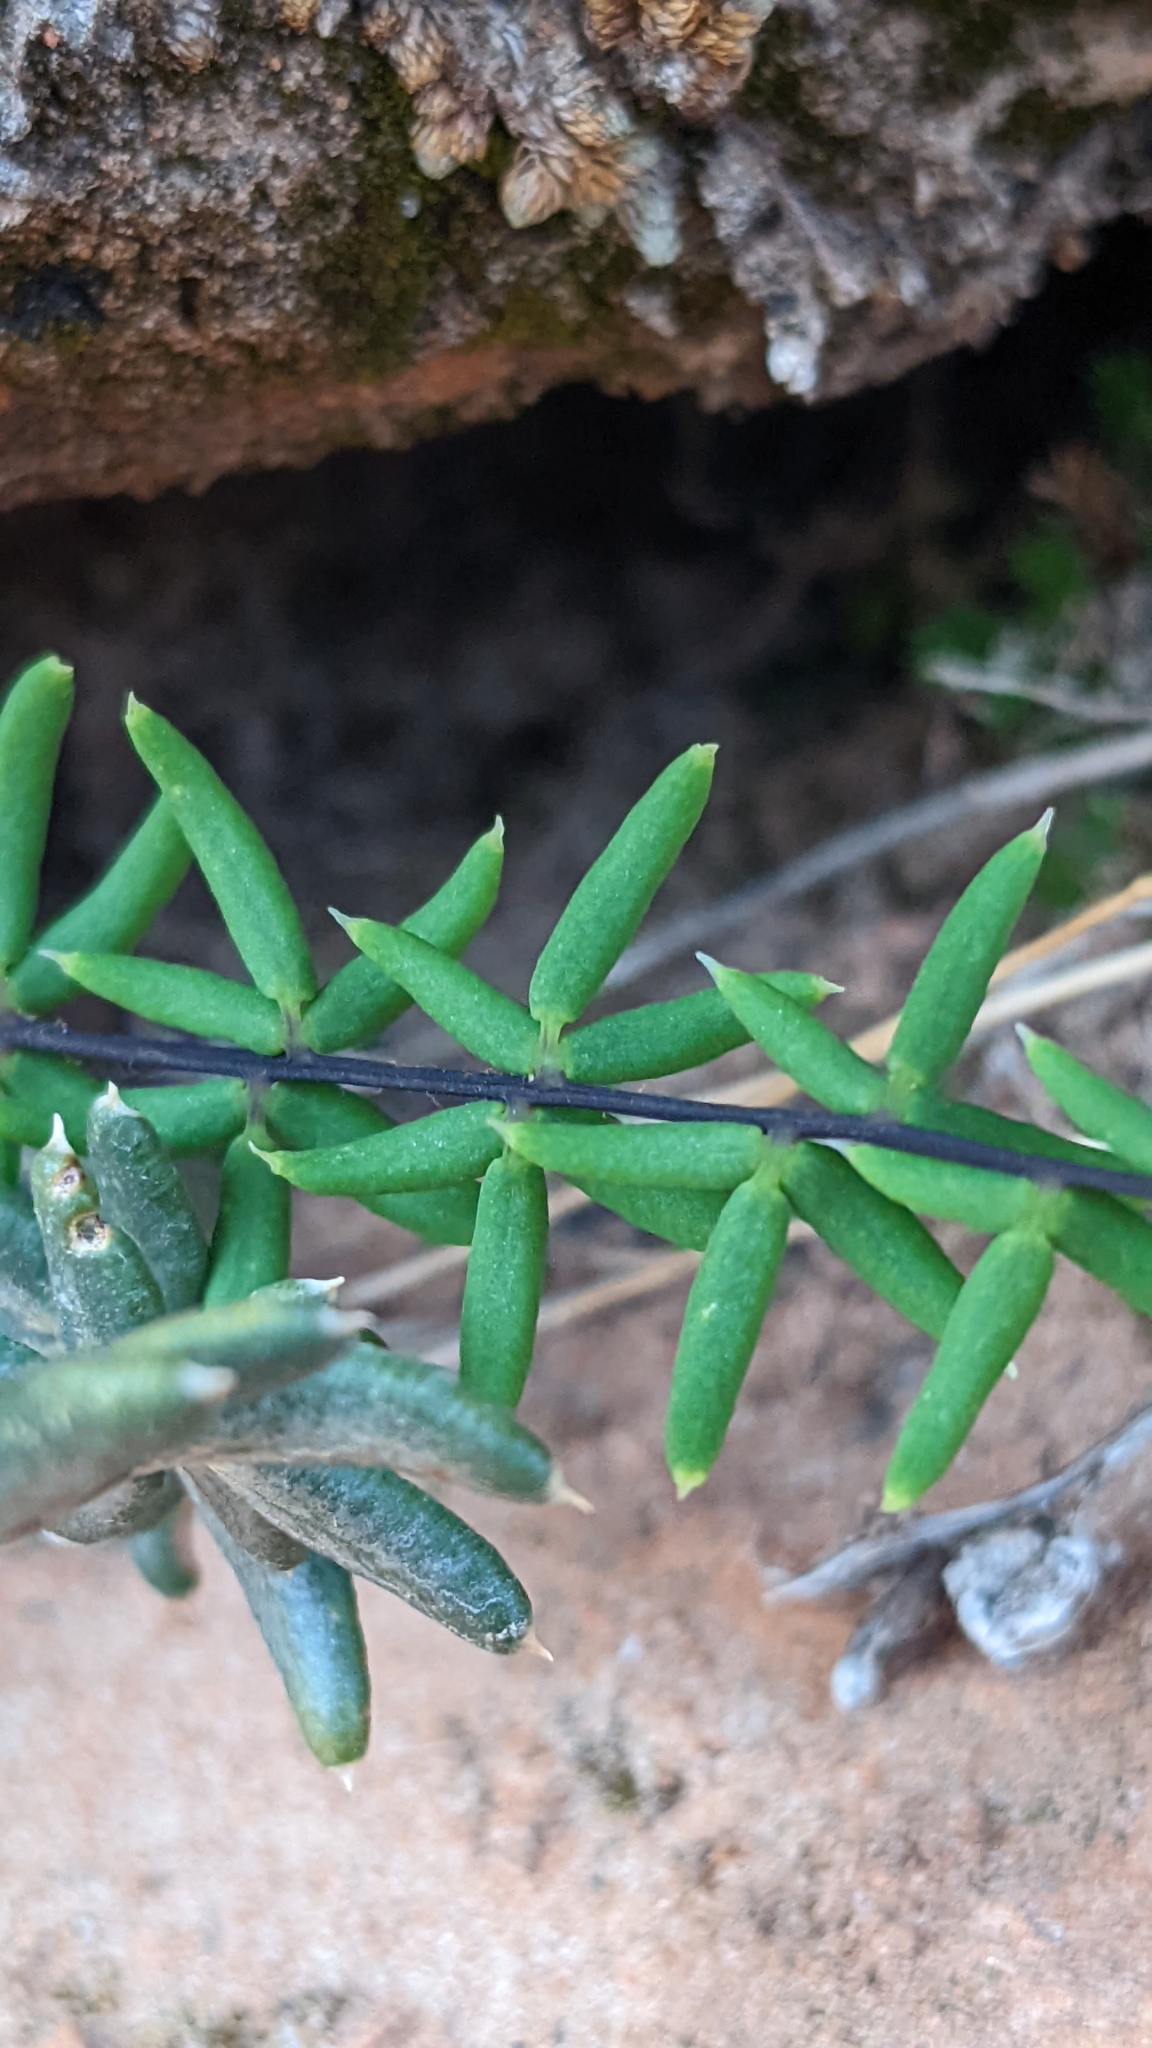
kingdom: Plantae
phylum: Tracheophyta
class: Polypodiopsida
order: Polypodiales
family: Pteridaceae
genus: Pellaea
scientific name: Pellaea wrightiana
